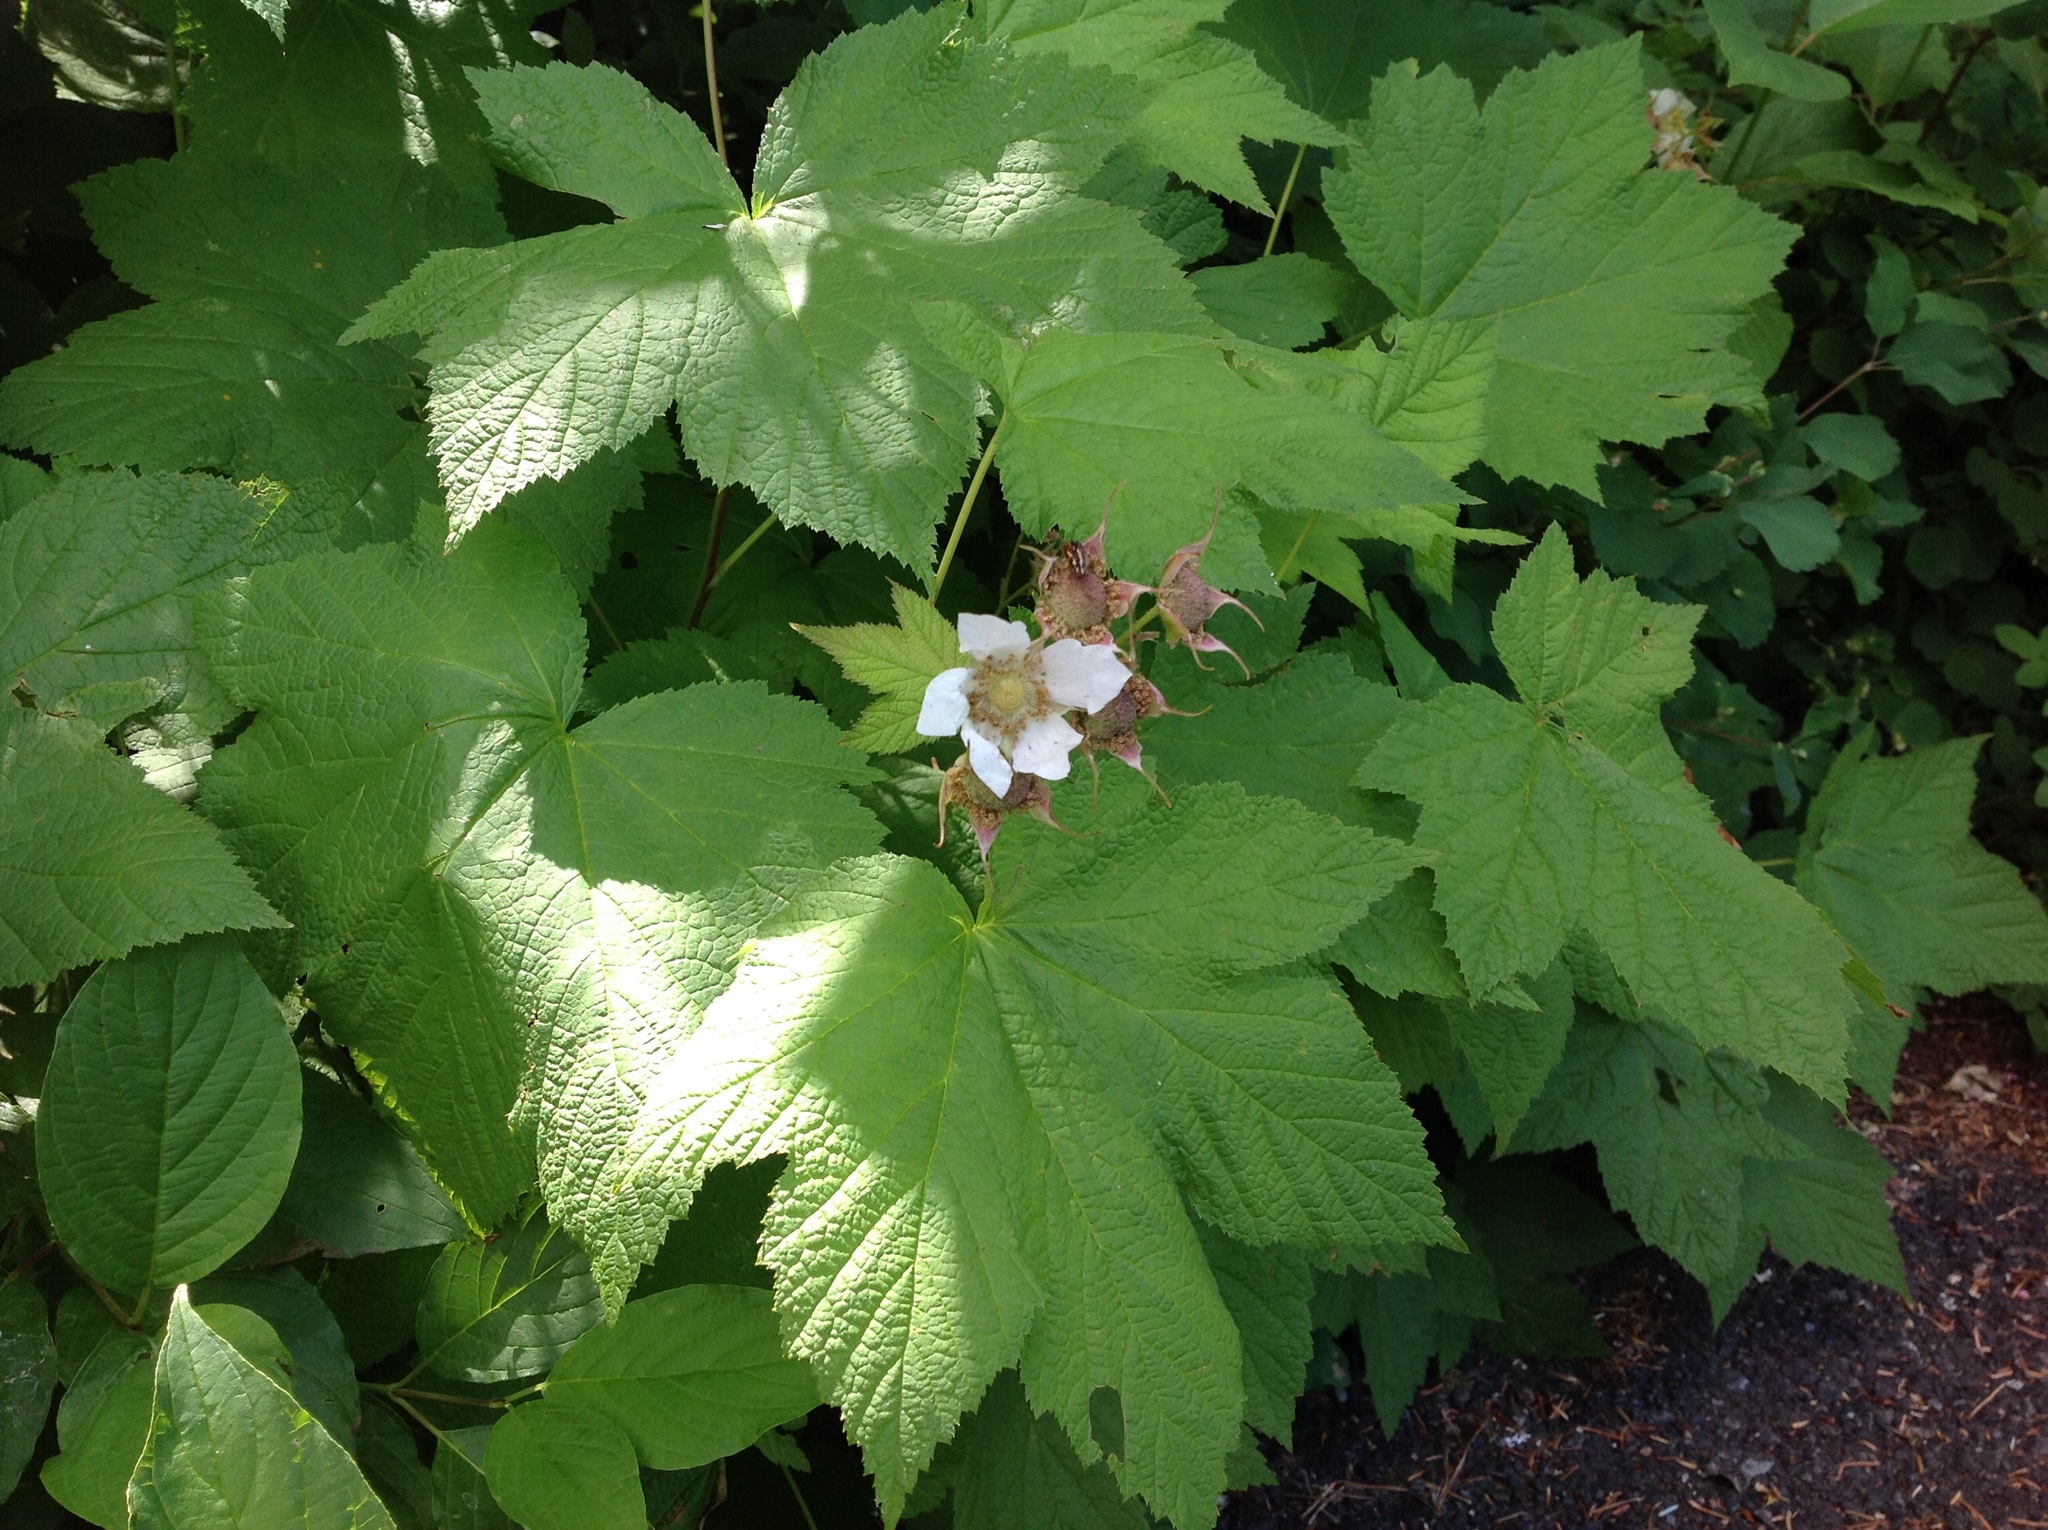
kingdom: Plantae
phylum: Tracheophyta
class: Magnoliopsida
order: Rosales
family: Rosaceae
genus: Rubus
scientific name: Rubus parviflorus
